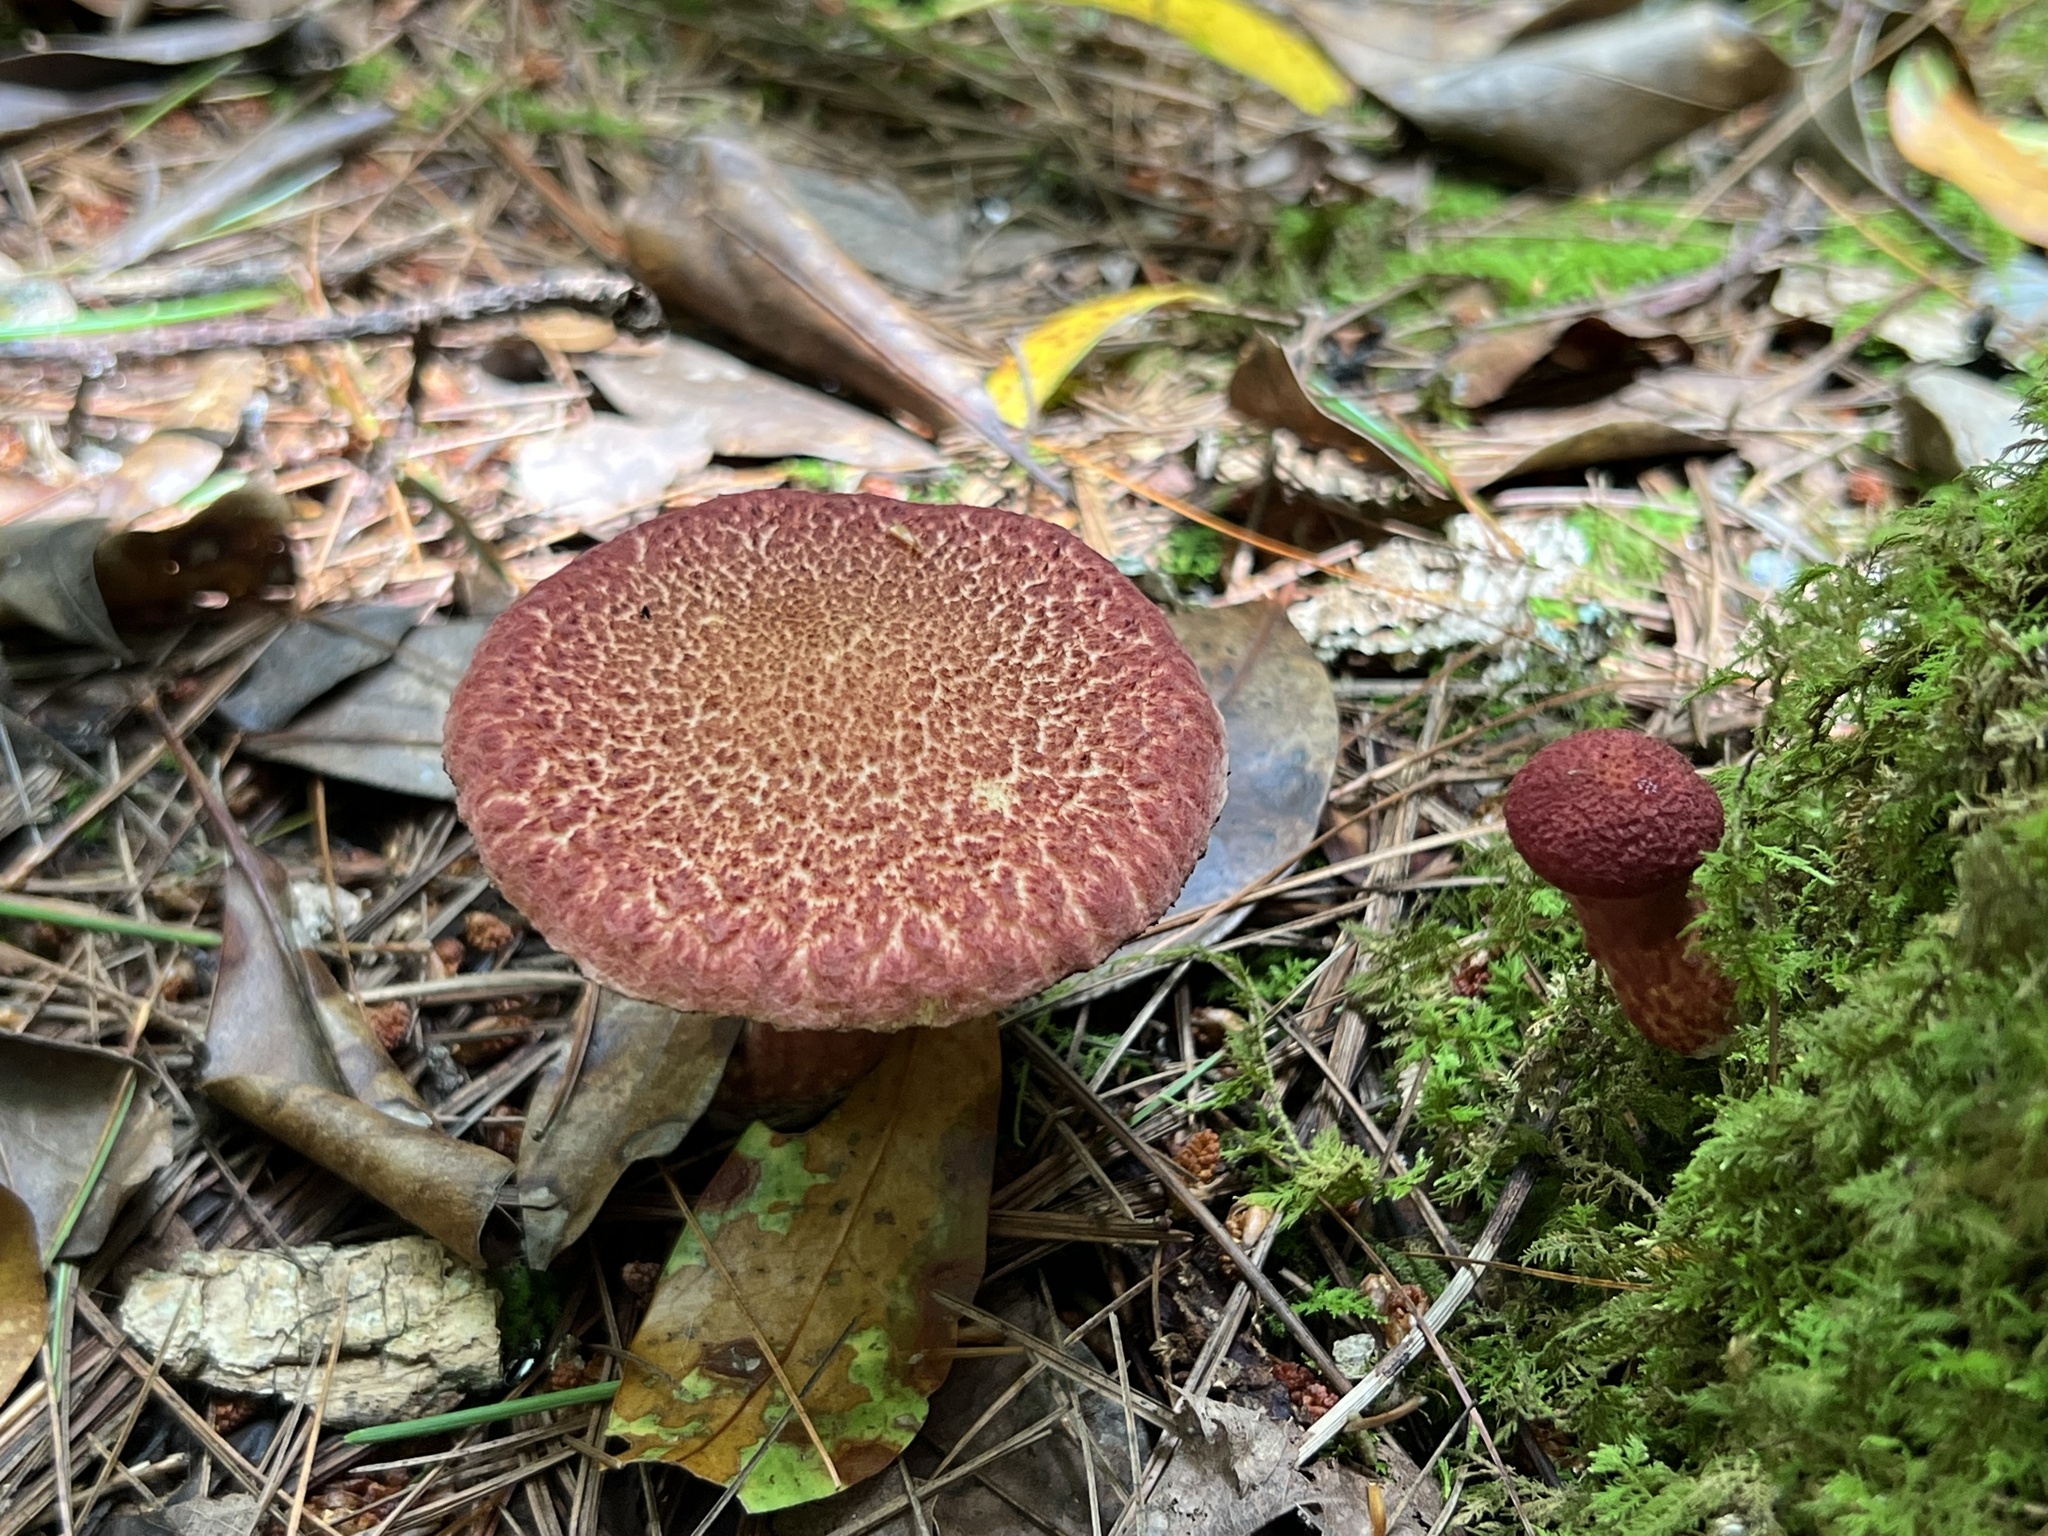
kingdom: Fungi
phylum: Basidiomycota
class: Agaricomycetes
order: Boletales
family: Suillaceae
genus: Suillus
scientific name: Suillus spraguei
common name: Painted suillus
